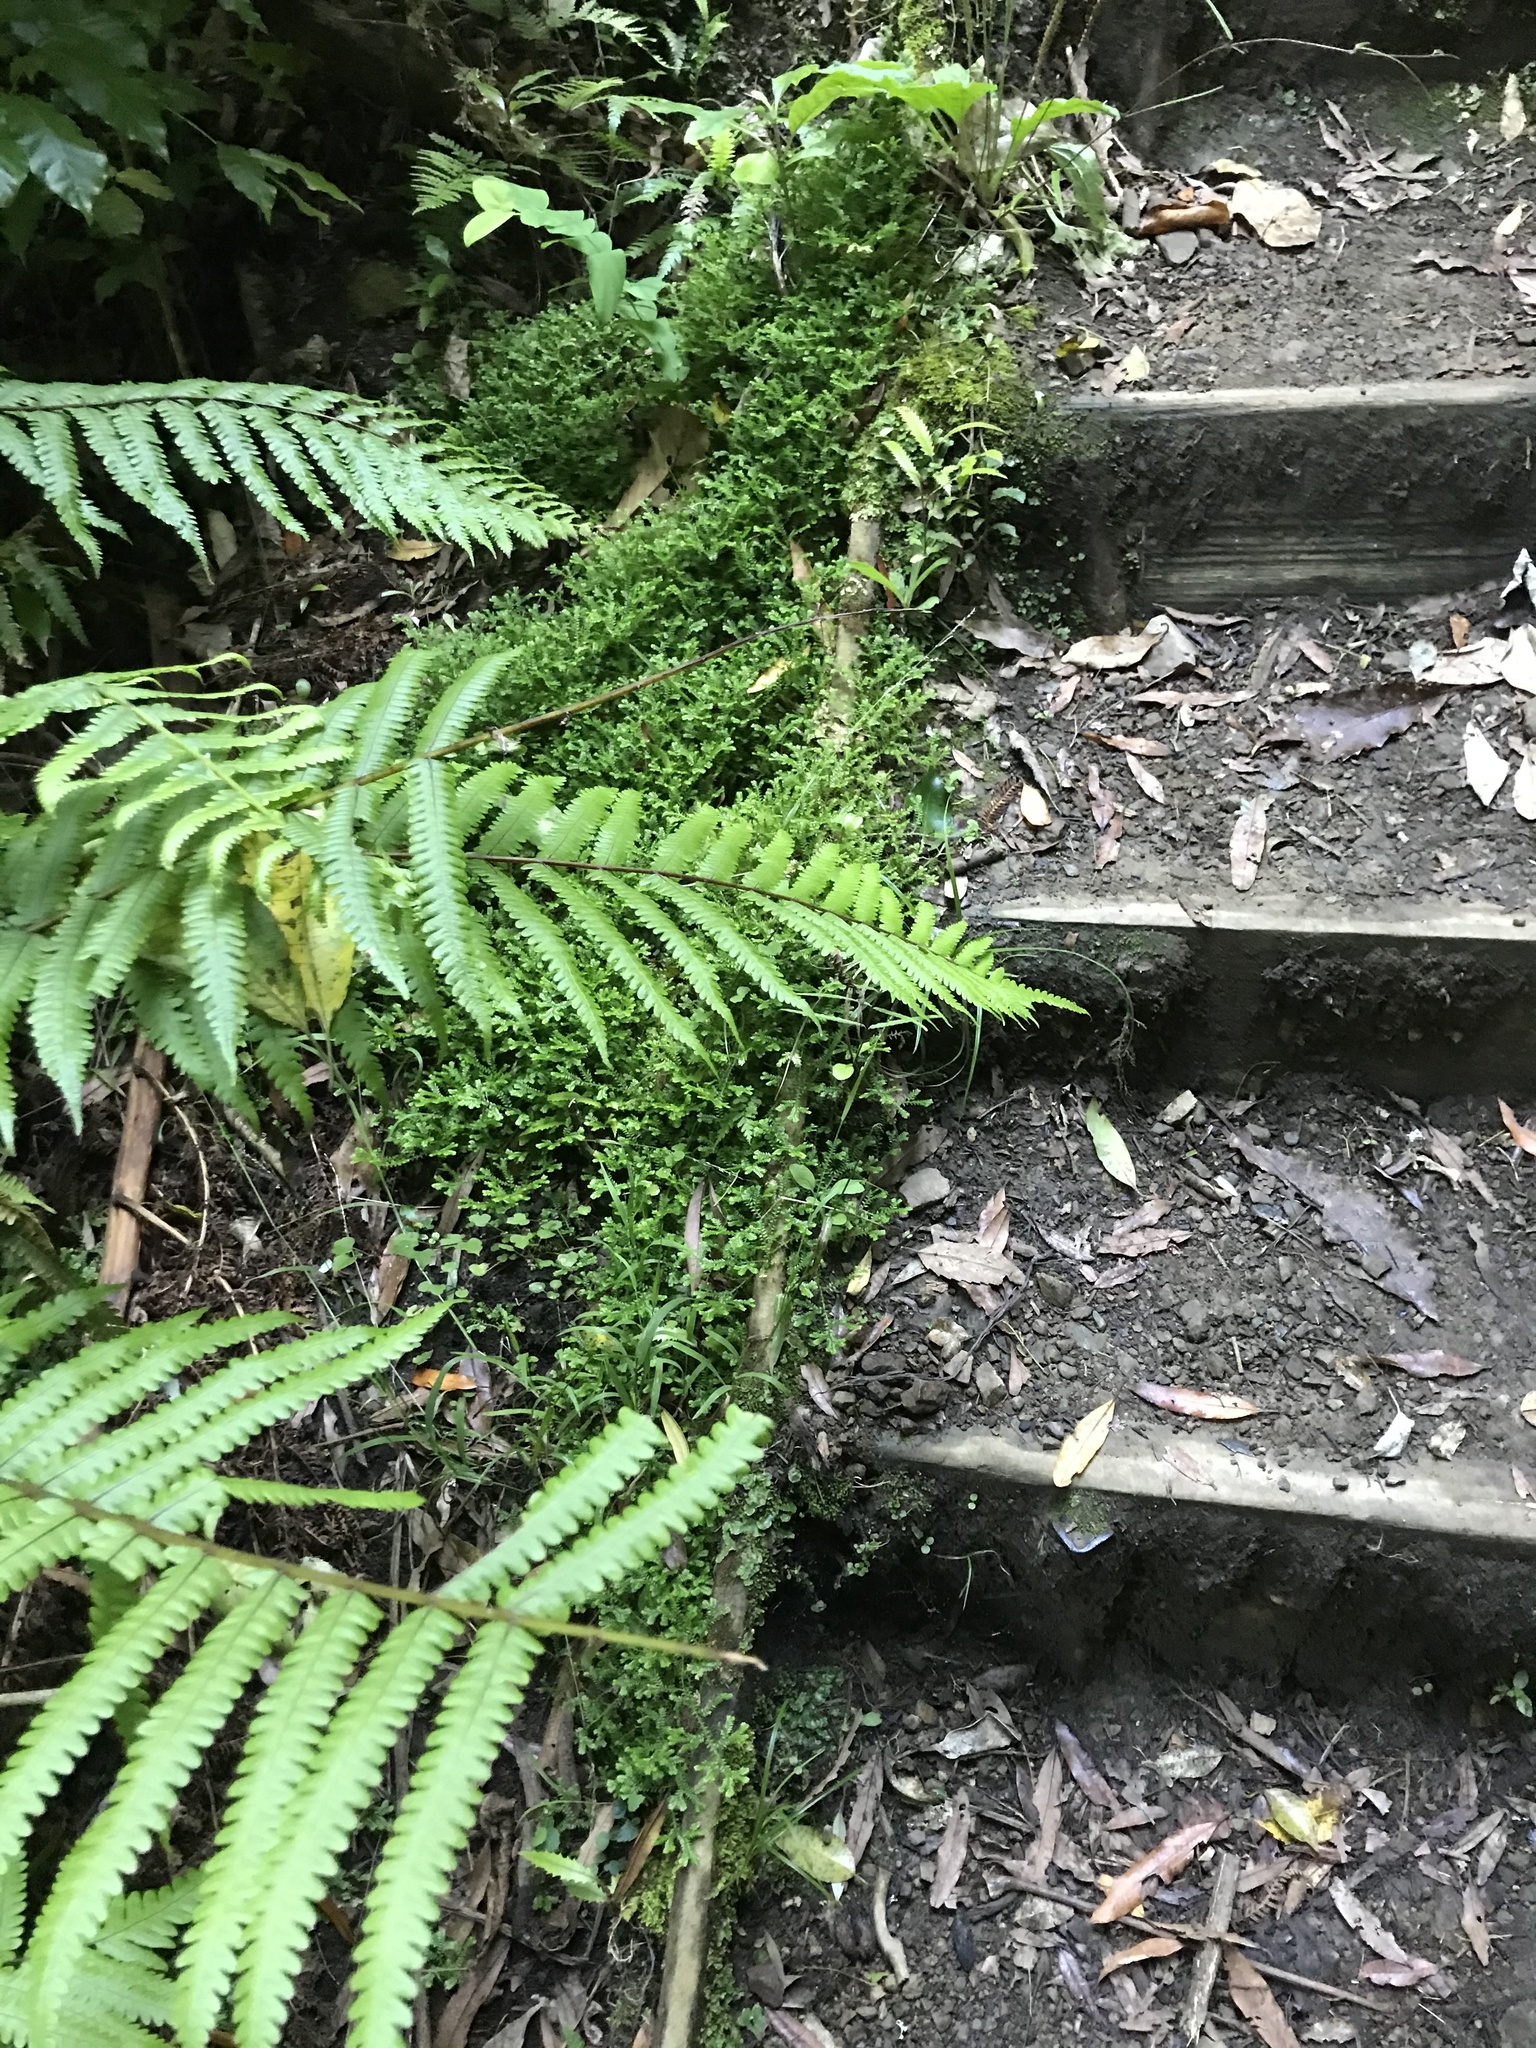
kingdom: Plantae
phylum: Tracheophyta
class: Lycopodiopsida
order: Selaginellales
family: Selaginellaceae
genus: Selaginella
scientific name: Selaginella kraussiana
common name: Krauss' spikemoss
